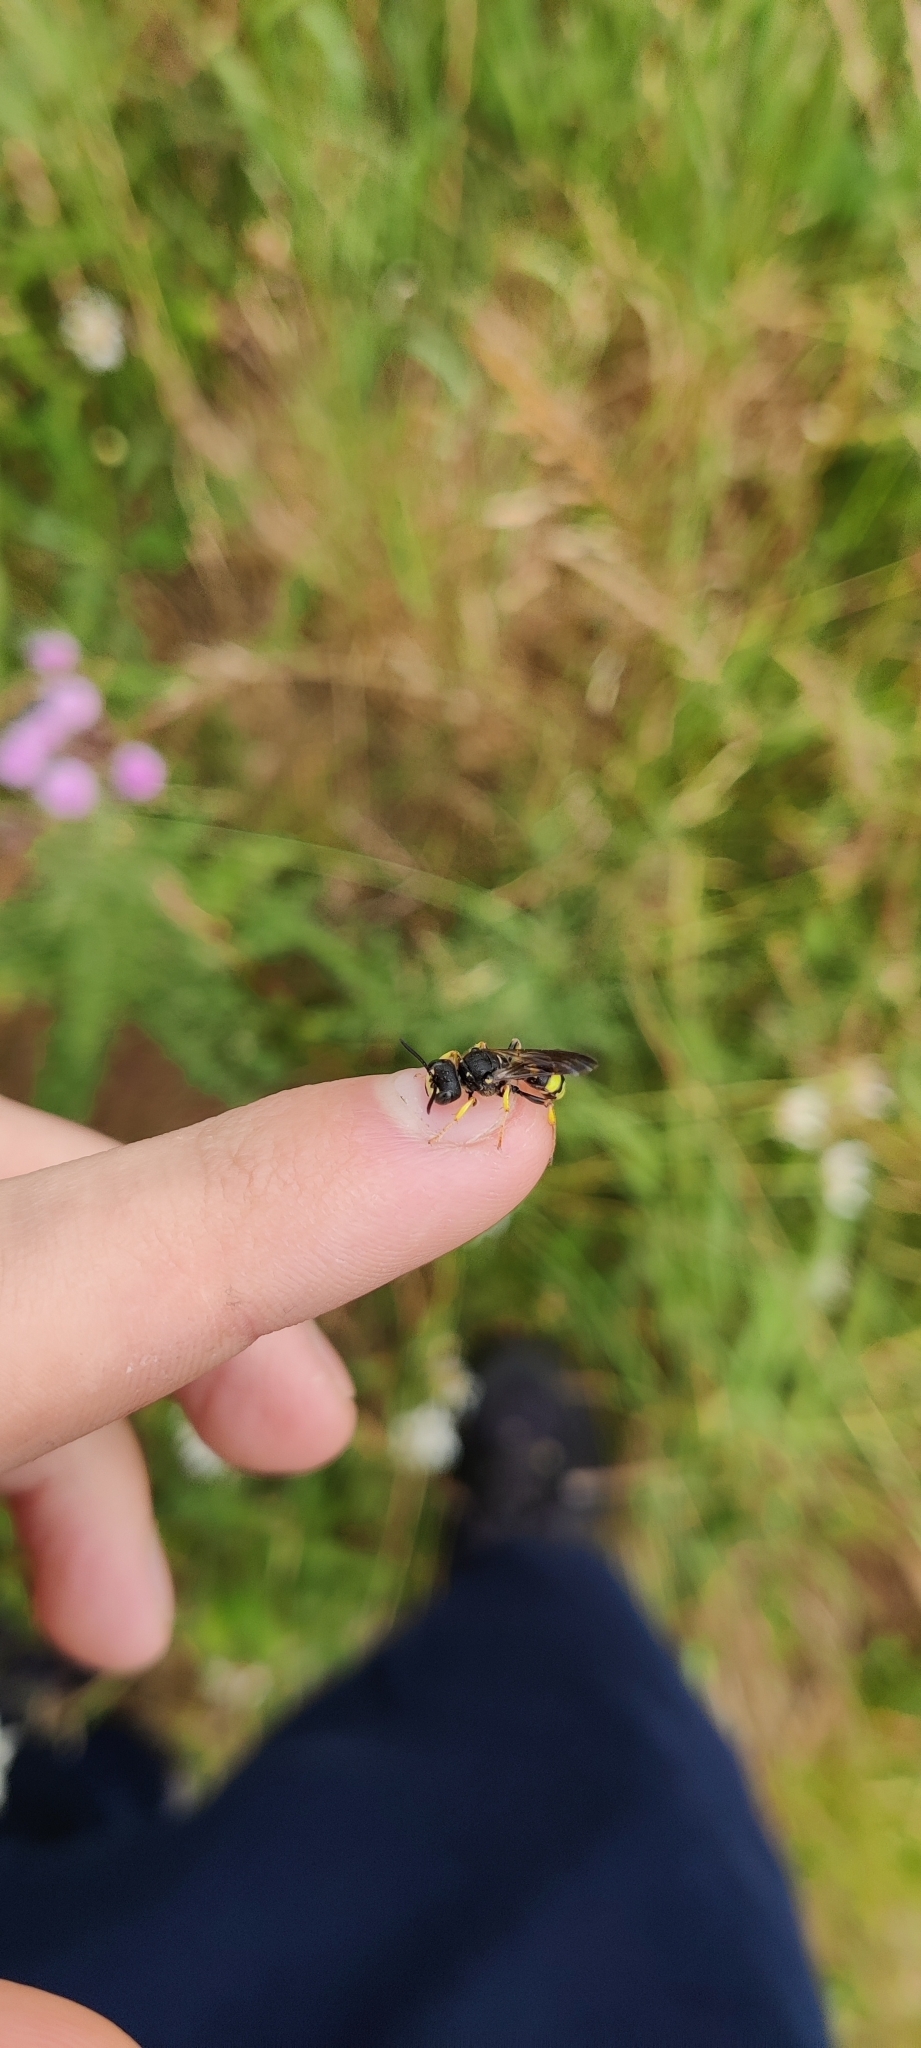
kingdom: Animalia
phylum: Arthropoda
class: Insecta
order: Hymenoptera
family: Crabronidae
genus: Cerceris
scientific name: Cerceris rybyensis
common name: Ornate tailed digger wasp
